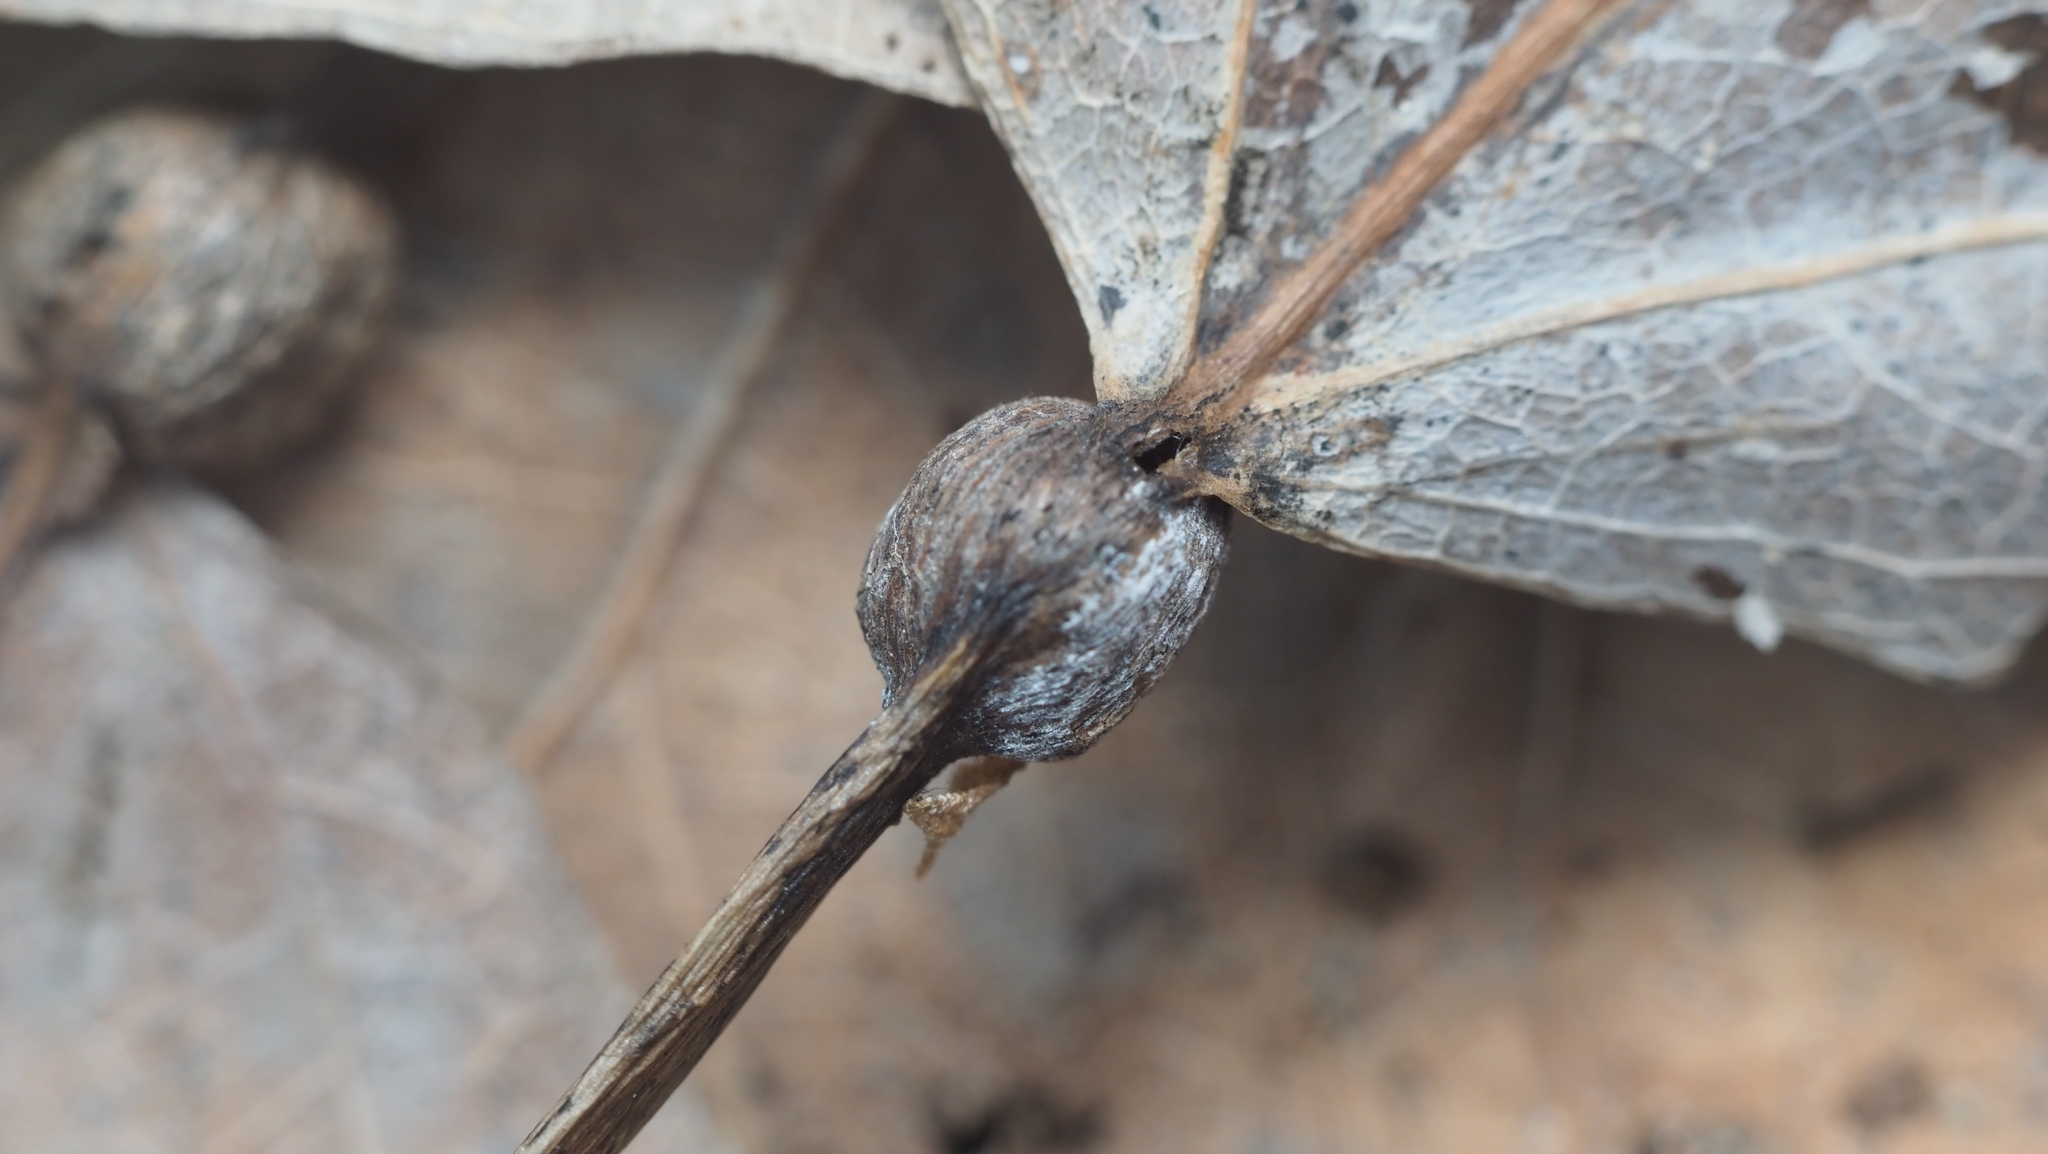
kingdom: Animalia
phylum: Arthropoda
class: Insecta
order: Lepidoptera
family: Nepticulidae
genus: Ectoedemia
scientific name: Ectoedemia populella
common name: Aspen petiole gall moth
